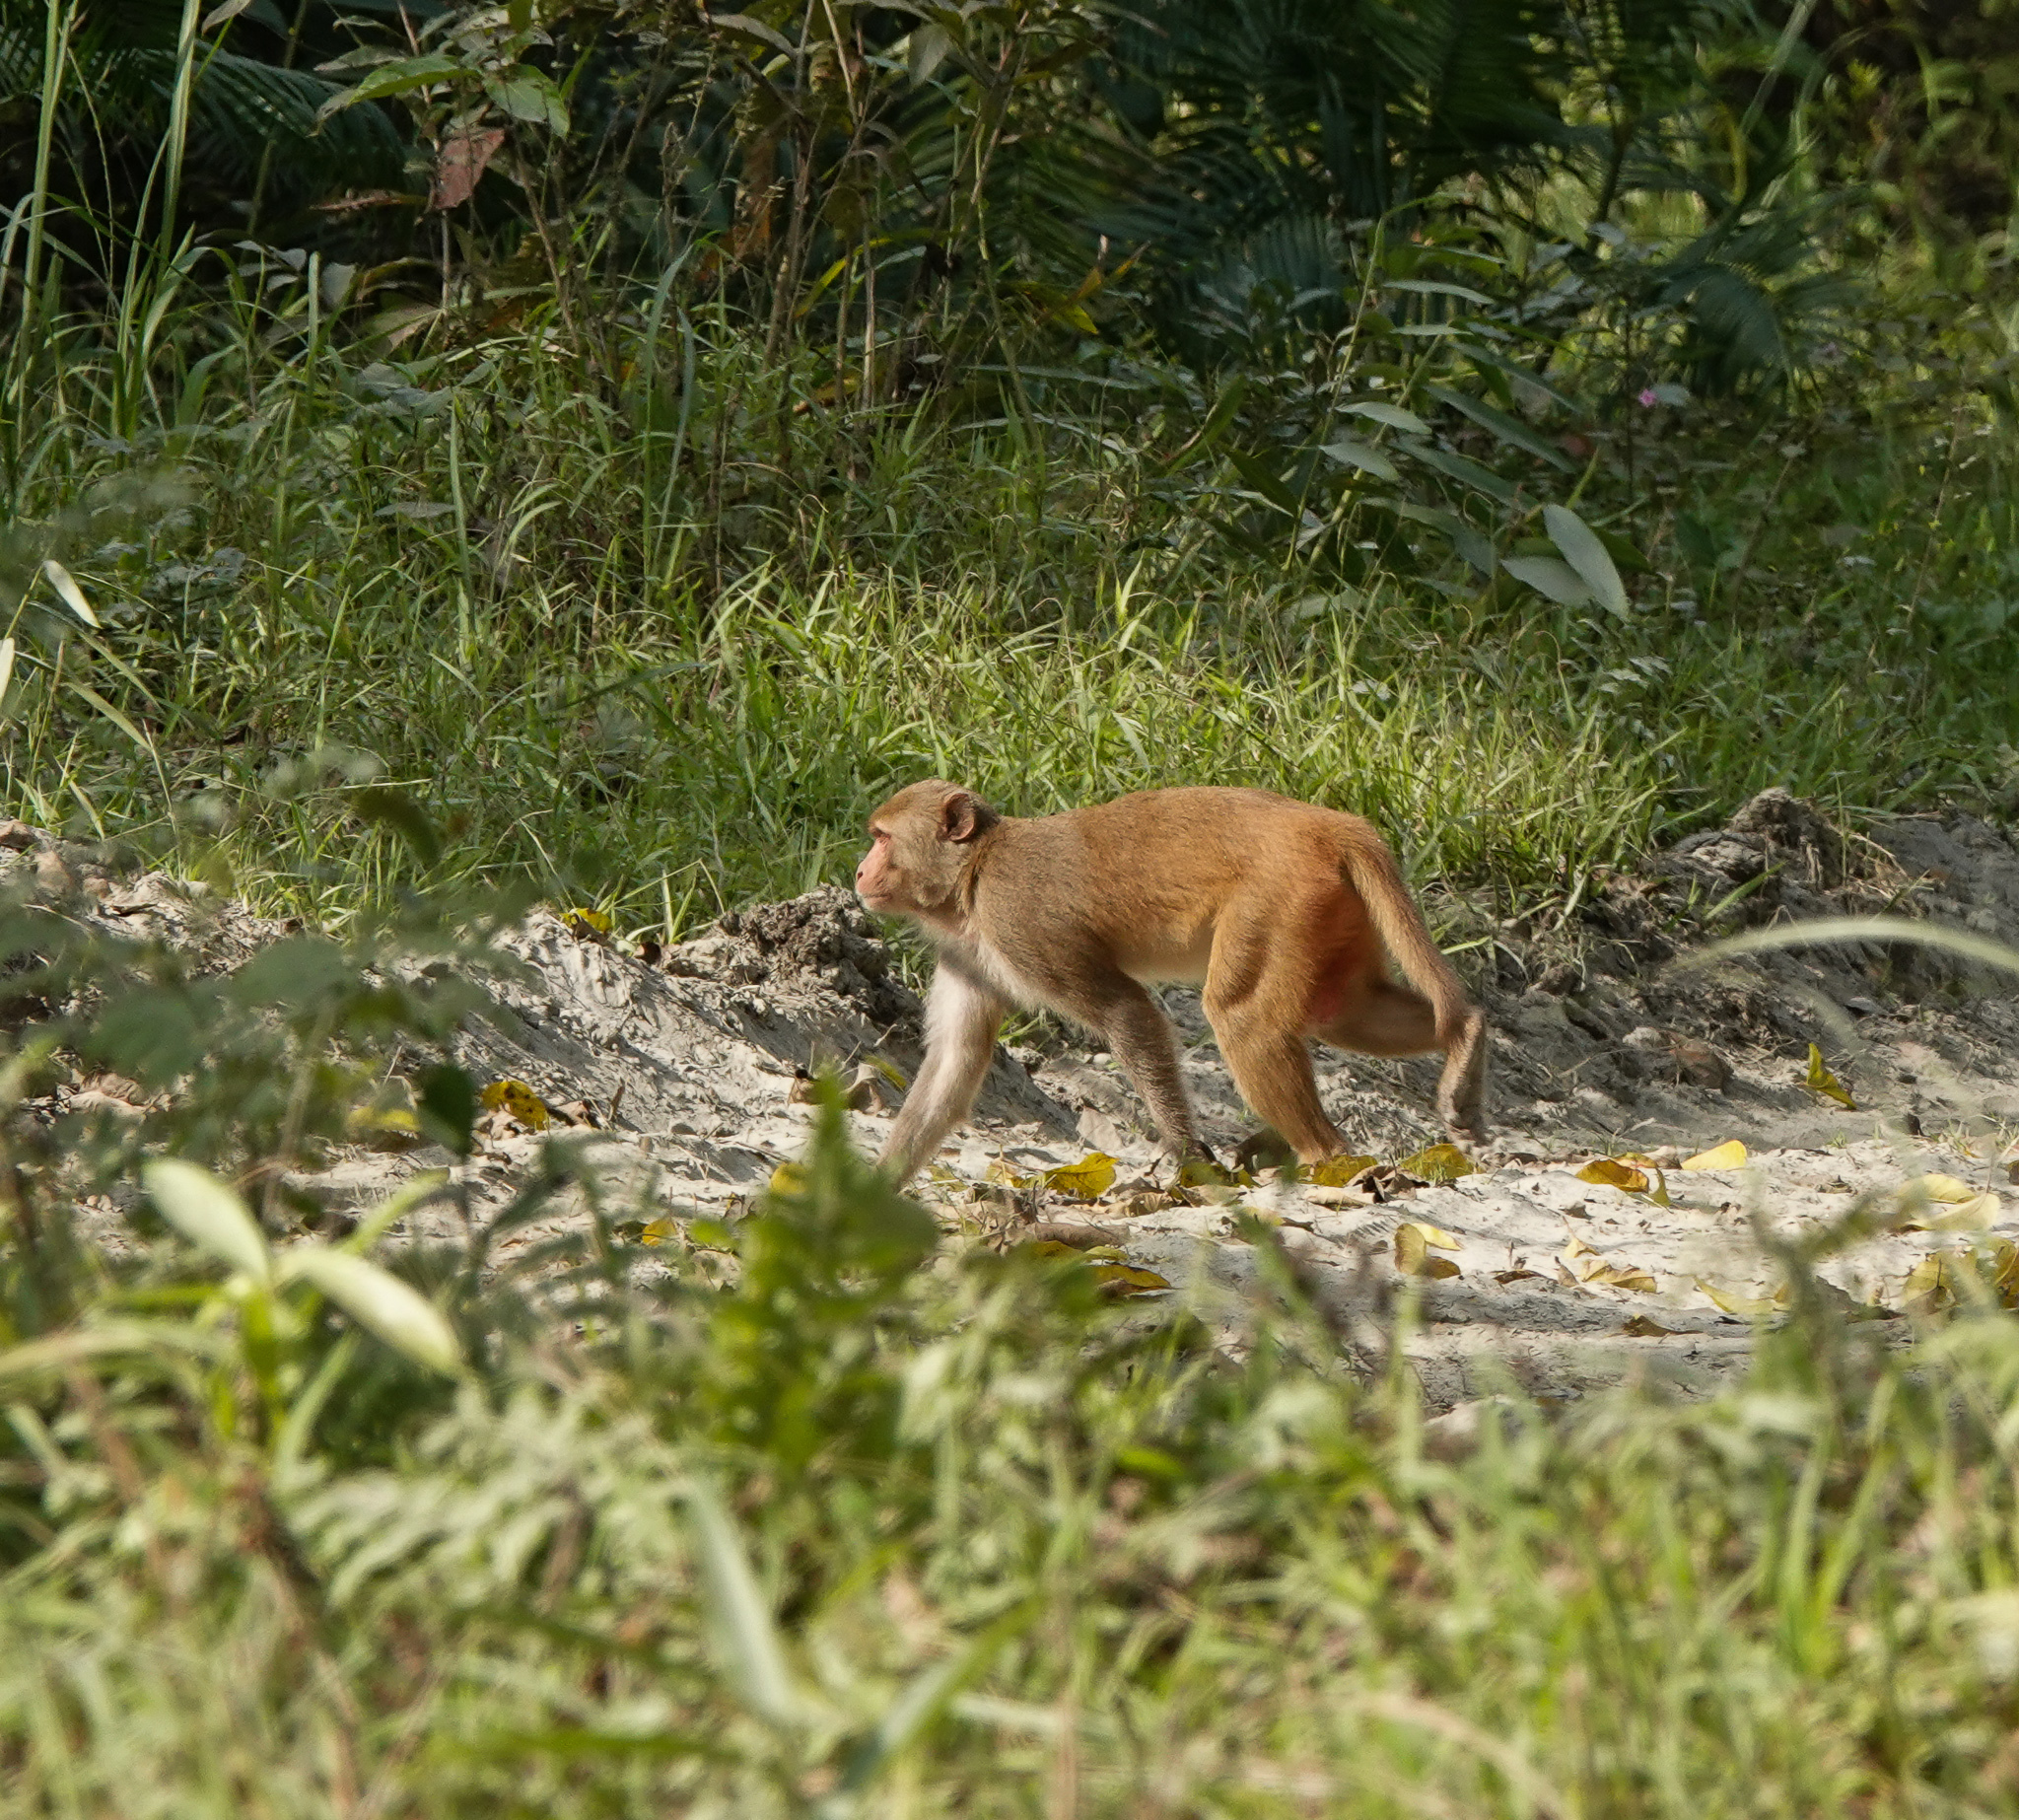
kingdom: Animalia
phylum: Chordata
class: Mammalia
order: Primates
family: Cercopithecidae
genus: Macaca
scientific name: Macaca mulatta
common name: Rhesus monkey
